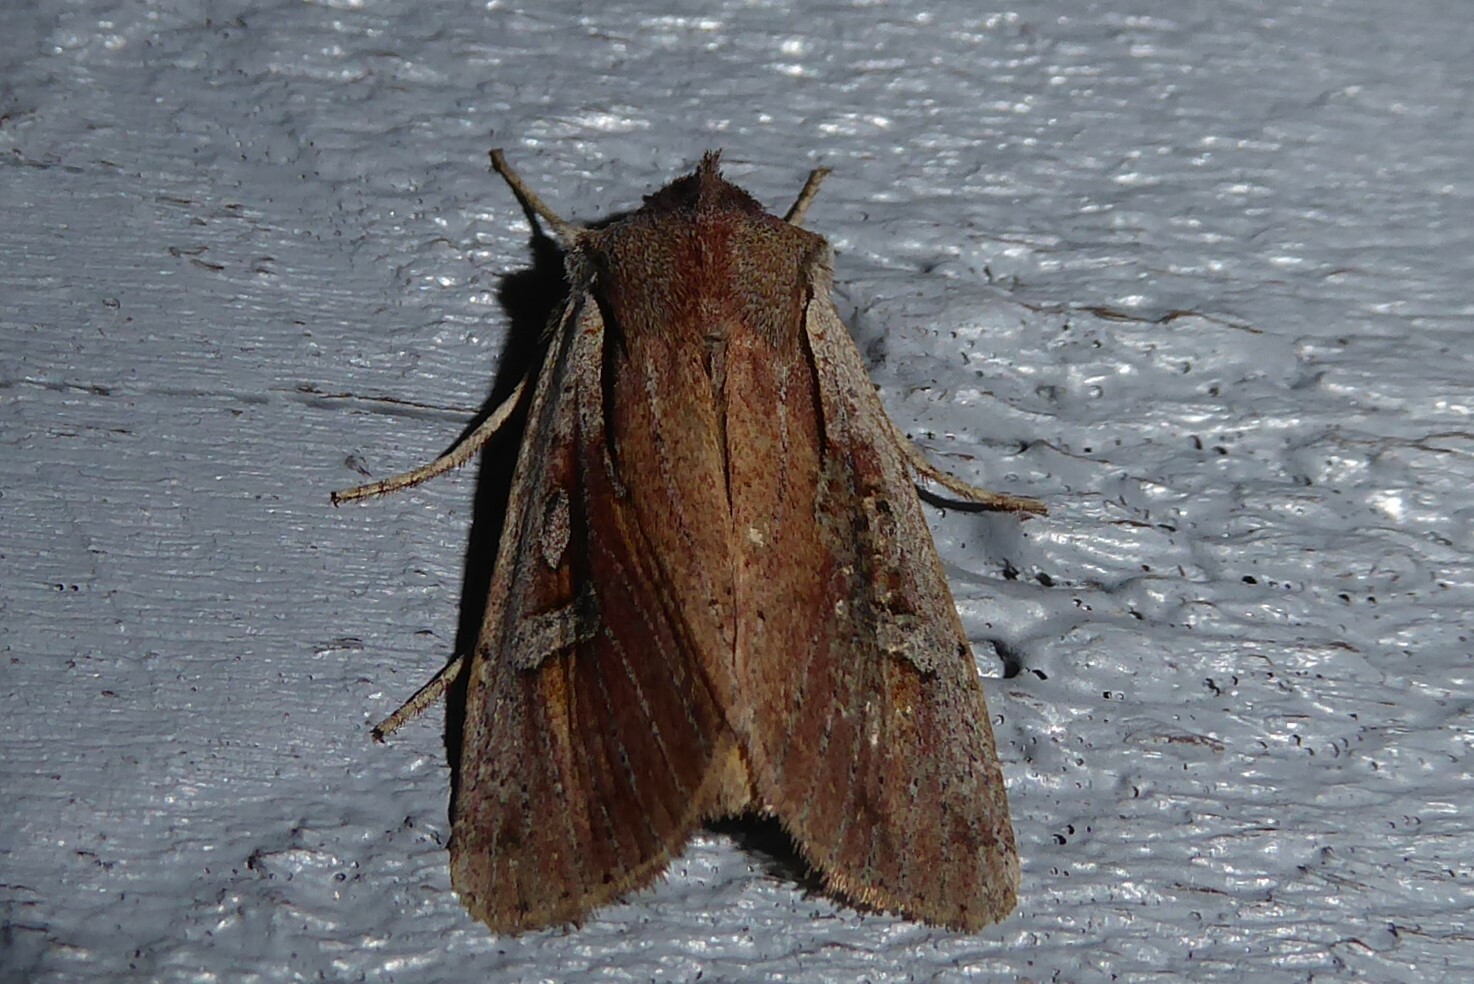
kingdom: Animalia
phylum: Arthropoda
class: Insecta
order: Lepidoptera
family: Noctuidae
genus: Ichneutica
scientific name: Ichneutica atristriga
